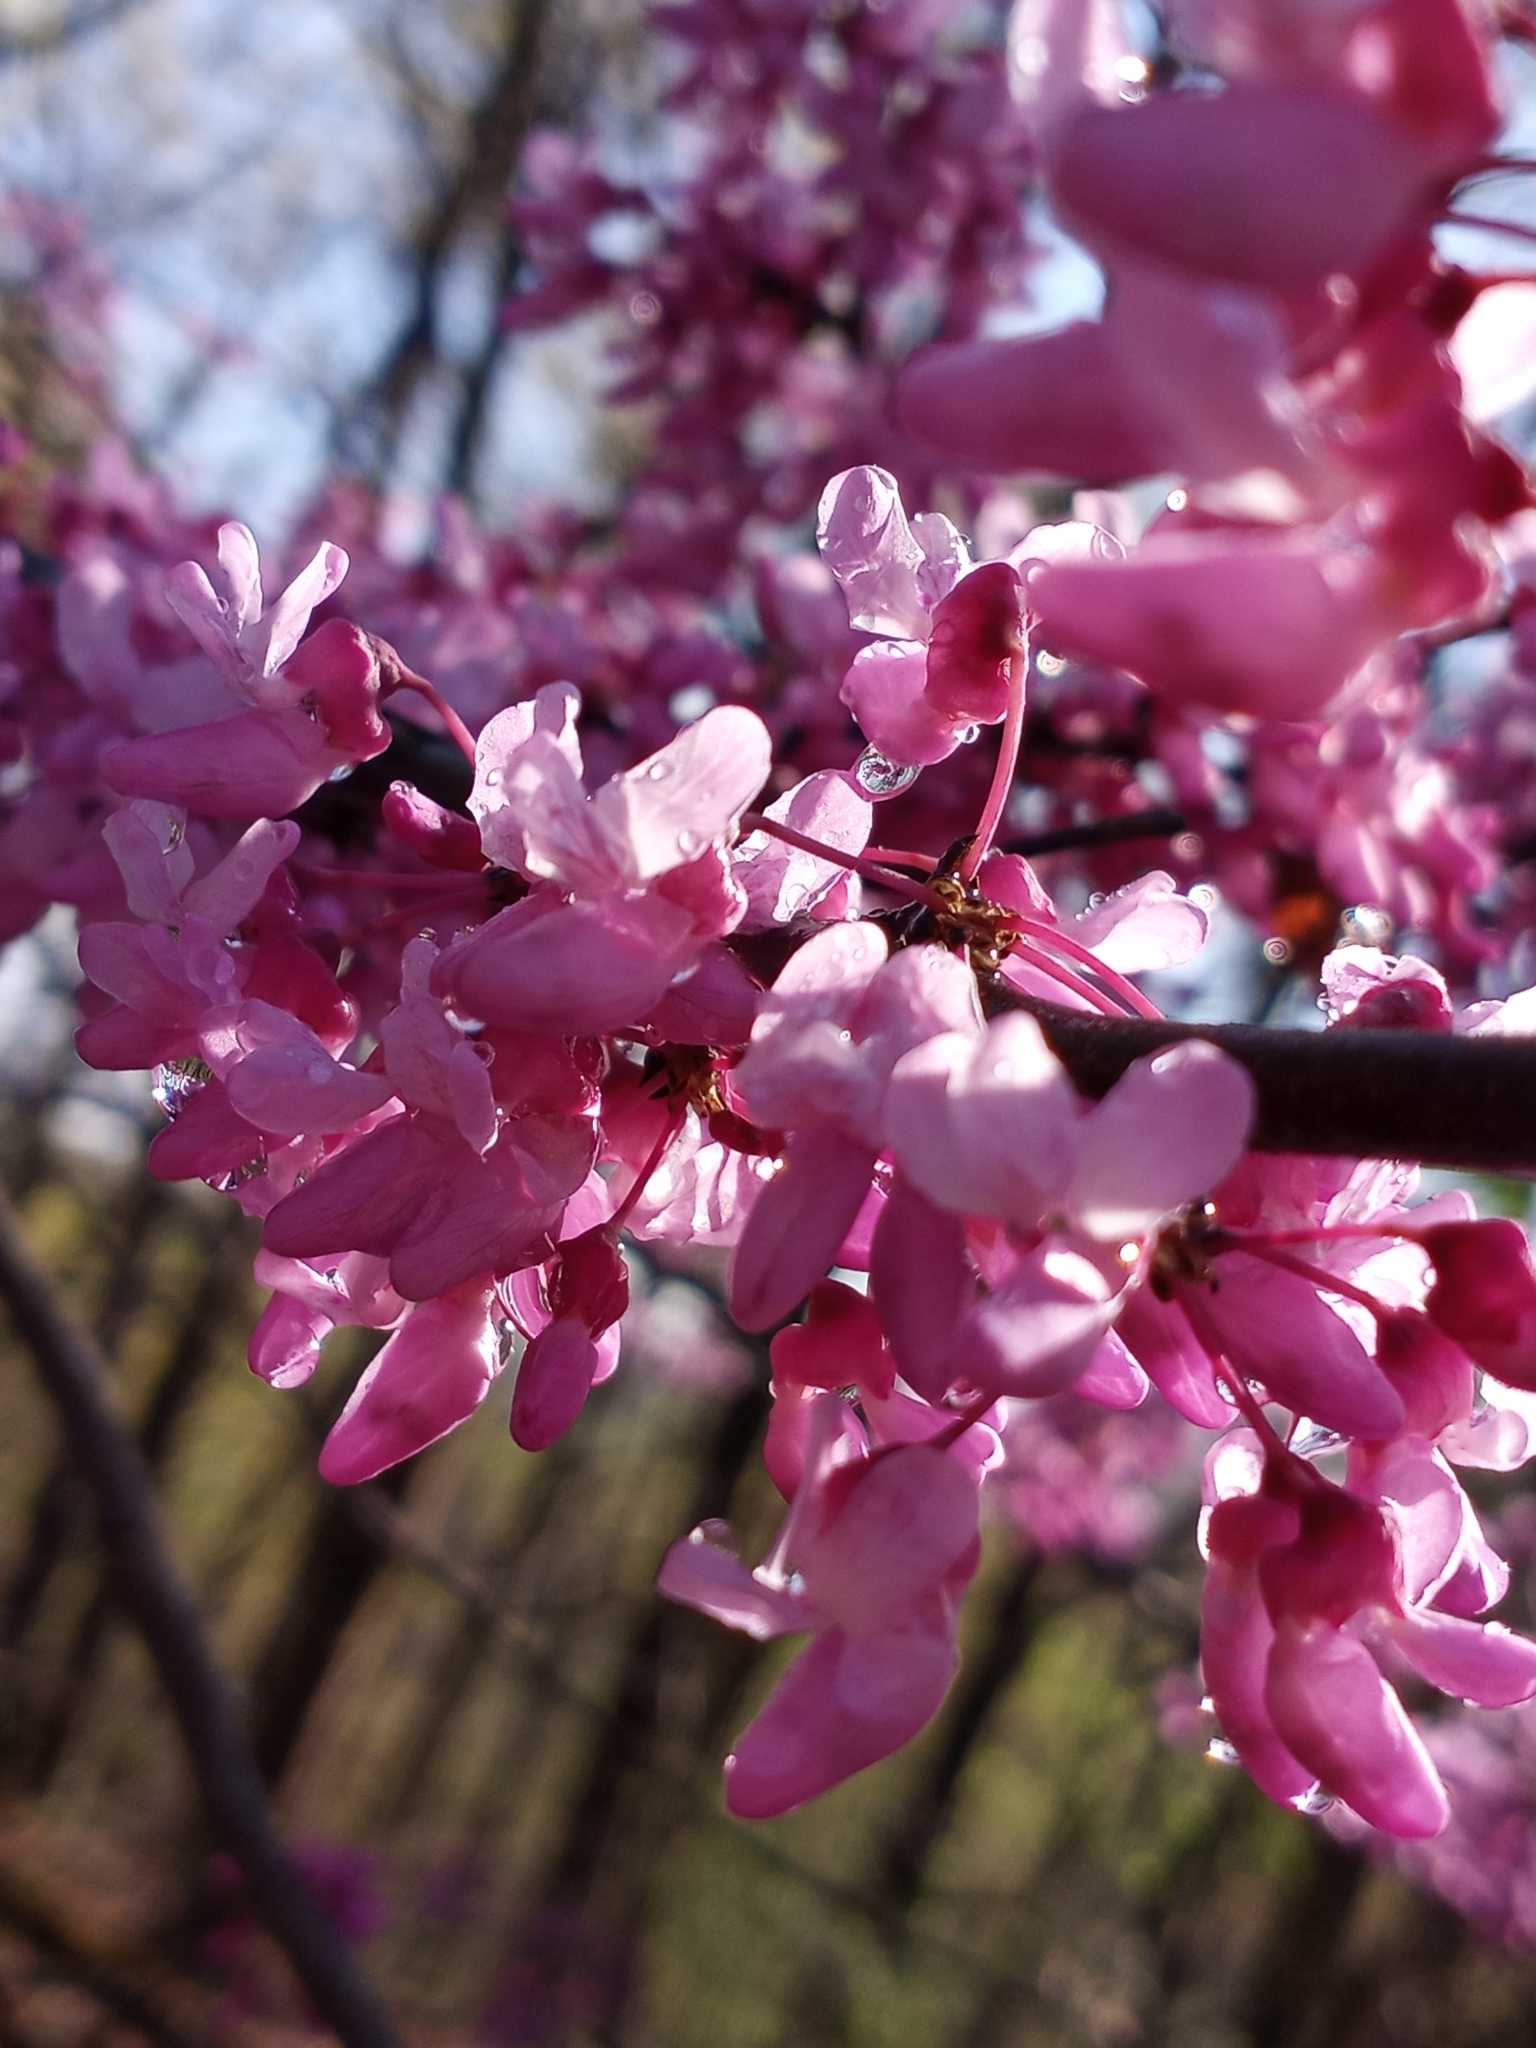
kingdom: Plantae
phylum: Tracheophyta
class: Magnoliopsida
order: Fabales
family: Fabaceae
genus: Cercis
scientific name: Cercis canadensis
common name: Eastern redbud
